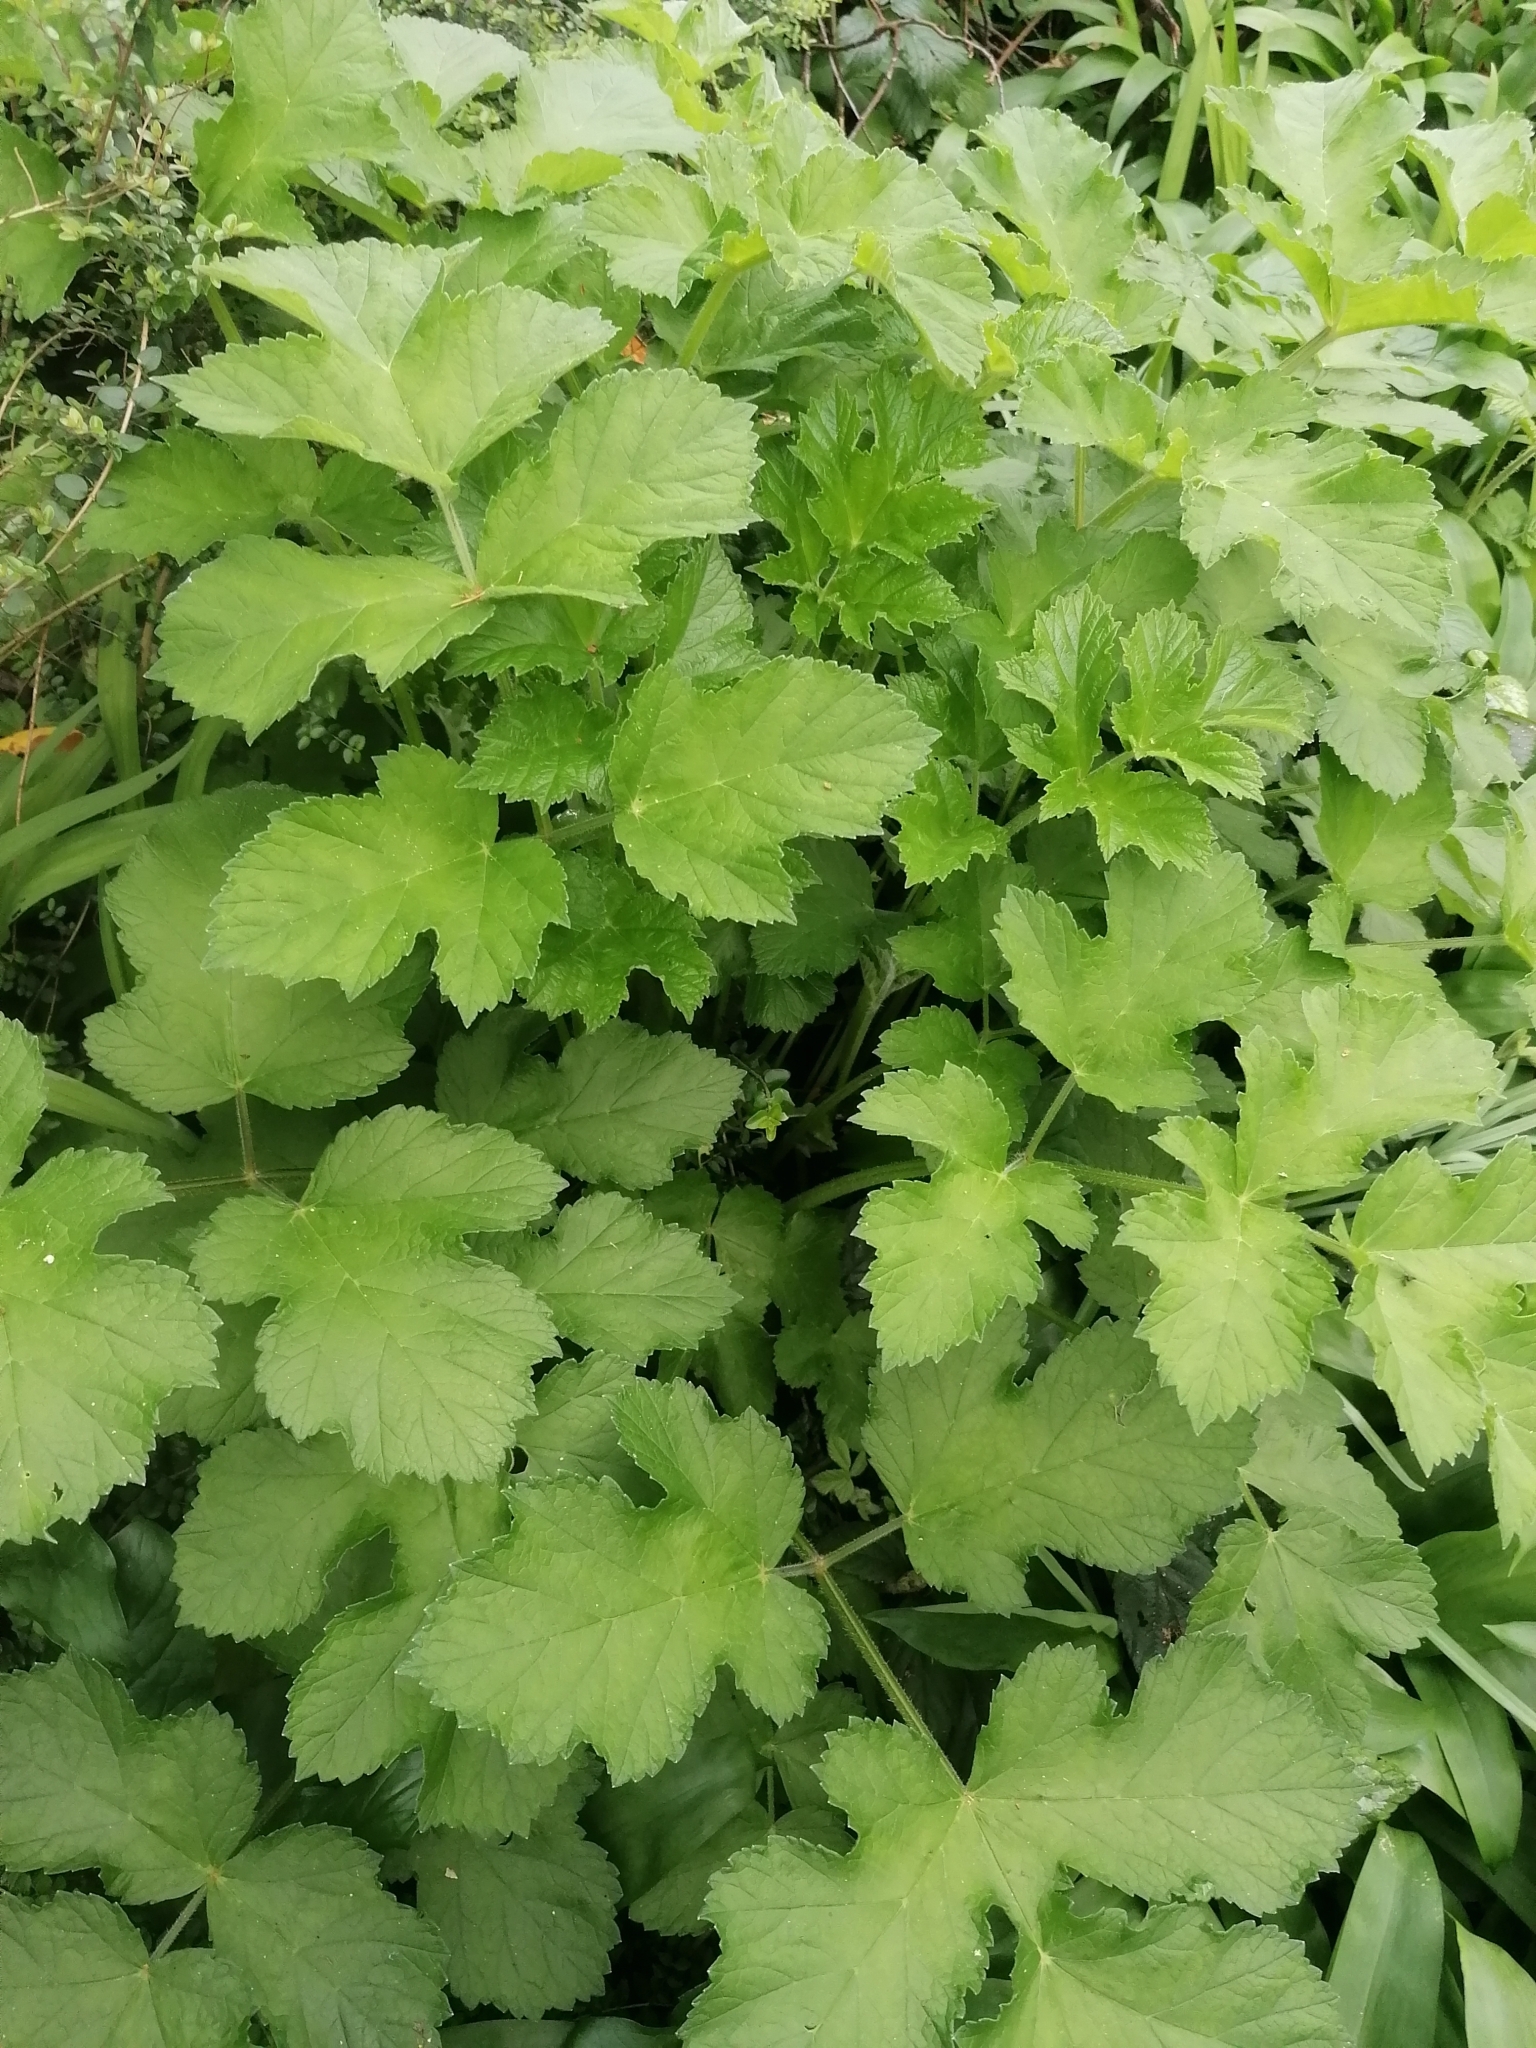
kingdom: Plantae
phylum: Tracheophyta
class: Magnoliopsida
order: Apiales
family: Apiaceae
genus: Heracleum
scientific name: Heracleum sphondylium
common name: Hogweed
